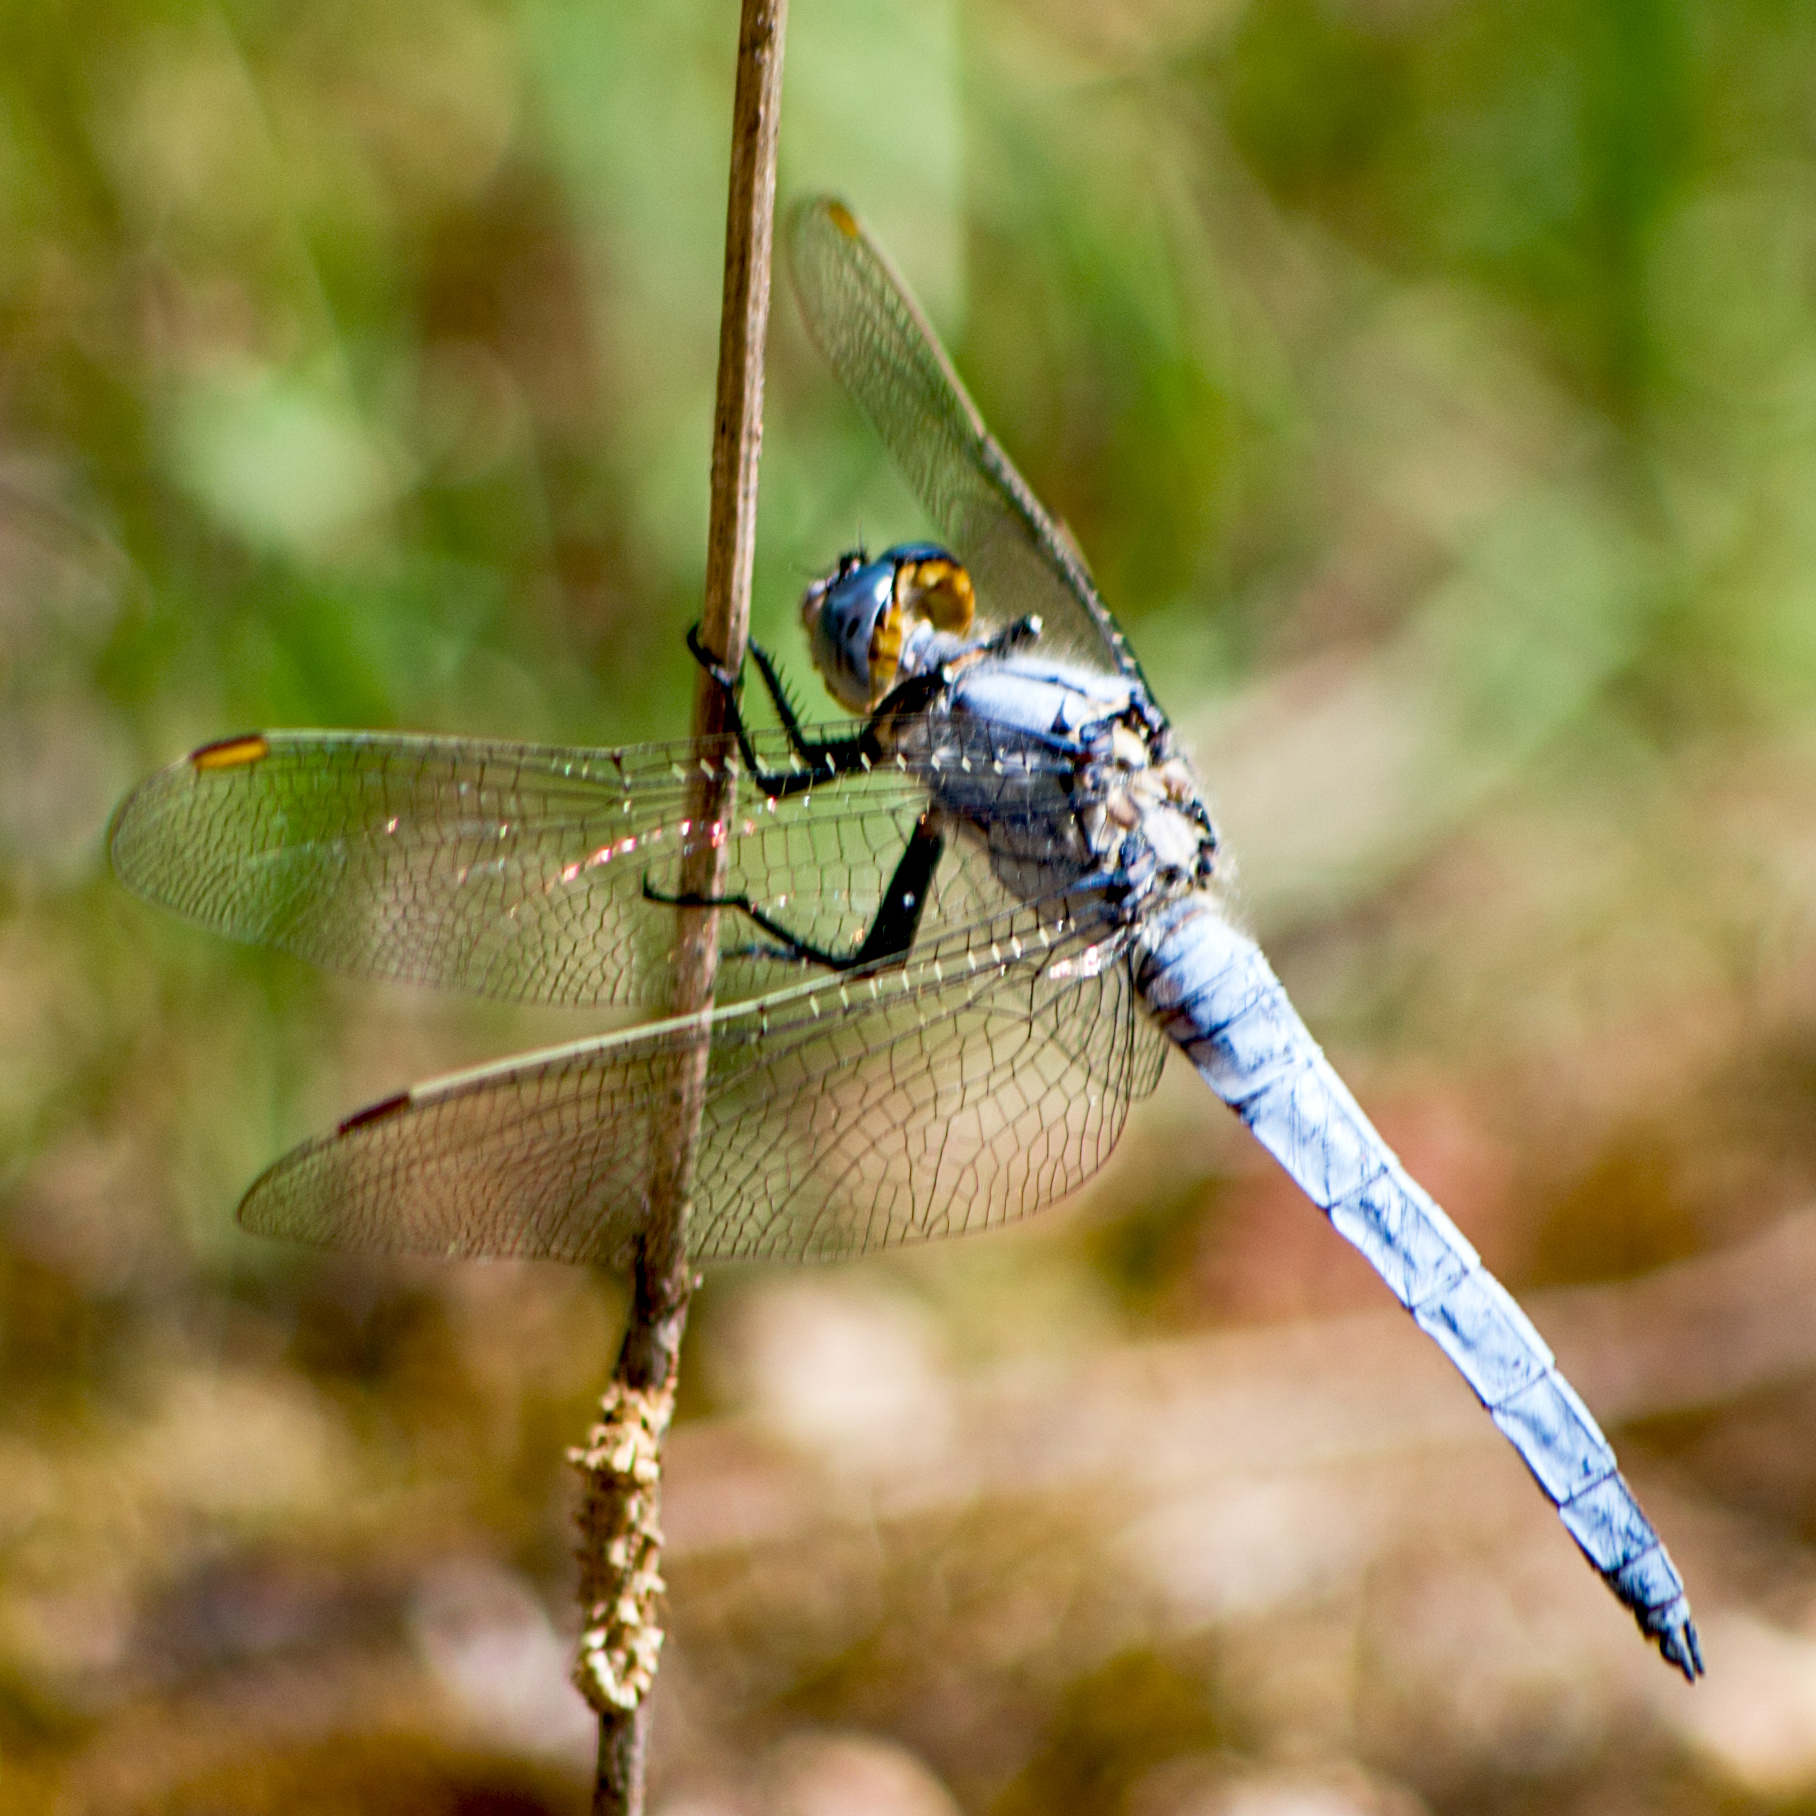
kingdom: Animalia
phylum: Arthropoda
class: Insecta
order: Odonata
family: Libellulidae
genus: Orthetrum
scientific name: Orthetrum brunneum
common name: Southern skimmer
